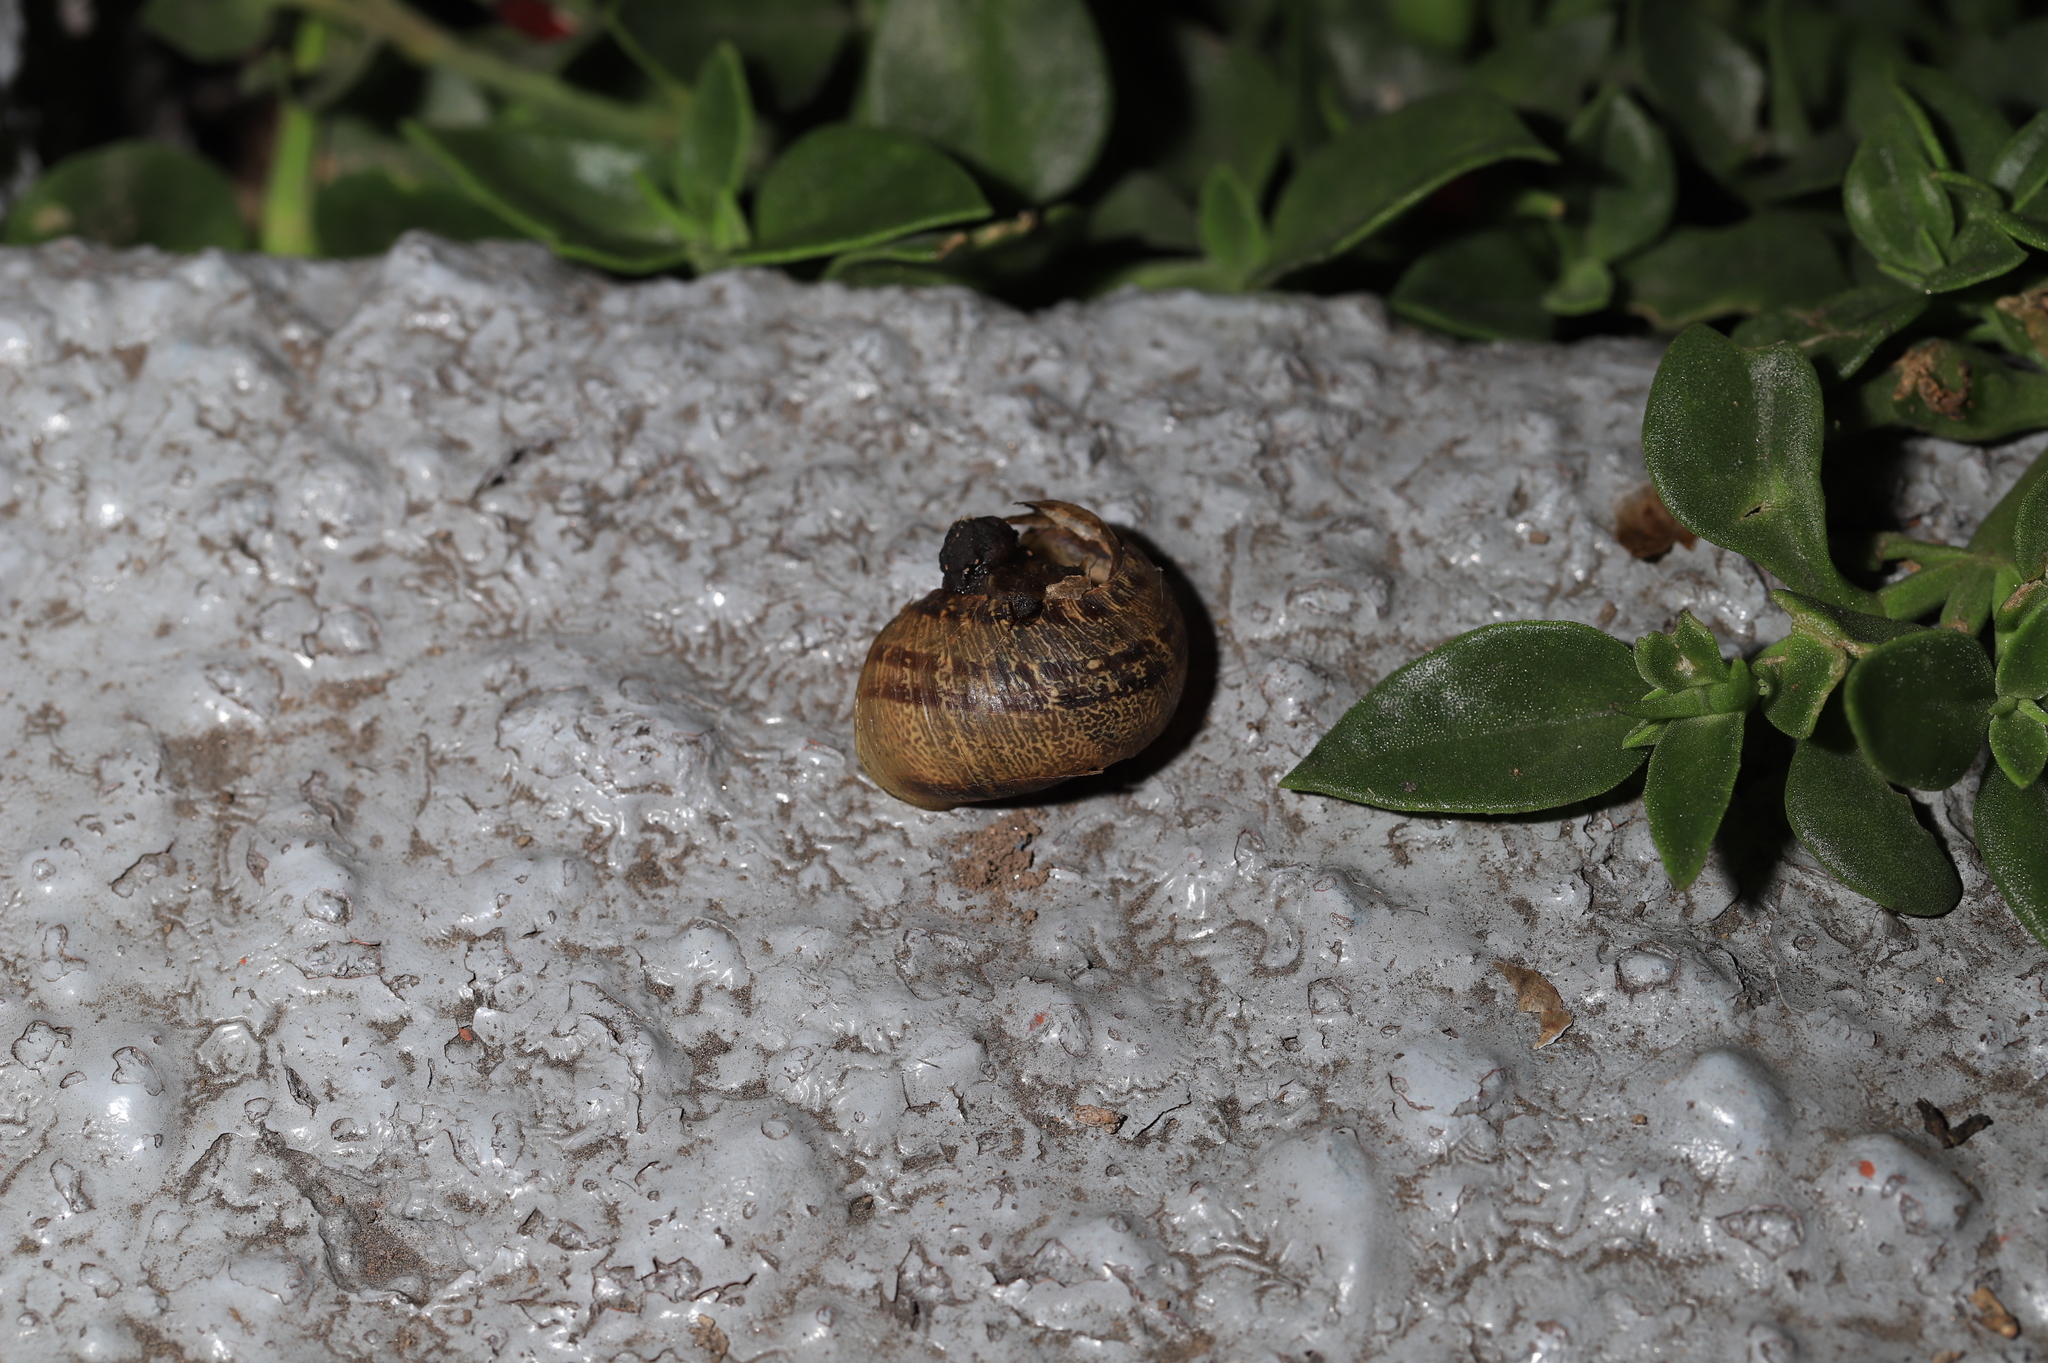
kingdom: Animalia
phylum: Mollusca
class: Gastropoda
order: Stylommatophora
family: Helicidae
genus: Cornu
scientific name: Cornu aspersum
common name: Brown garden snail
